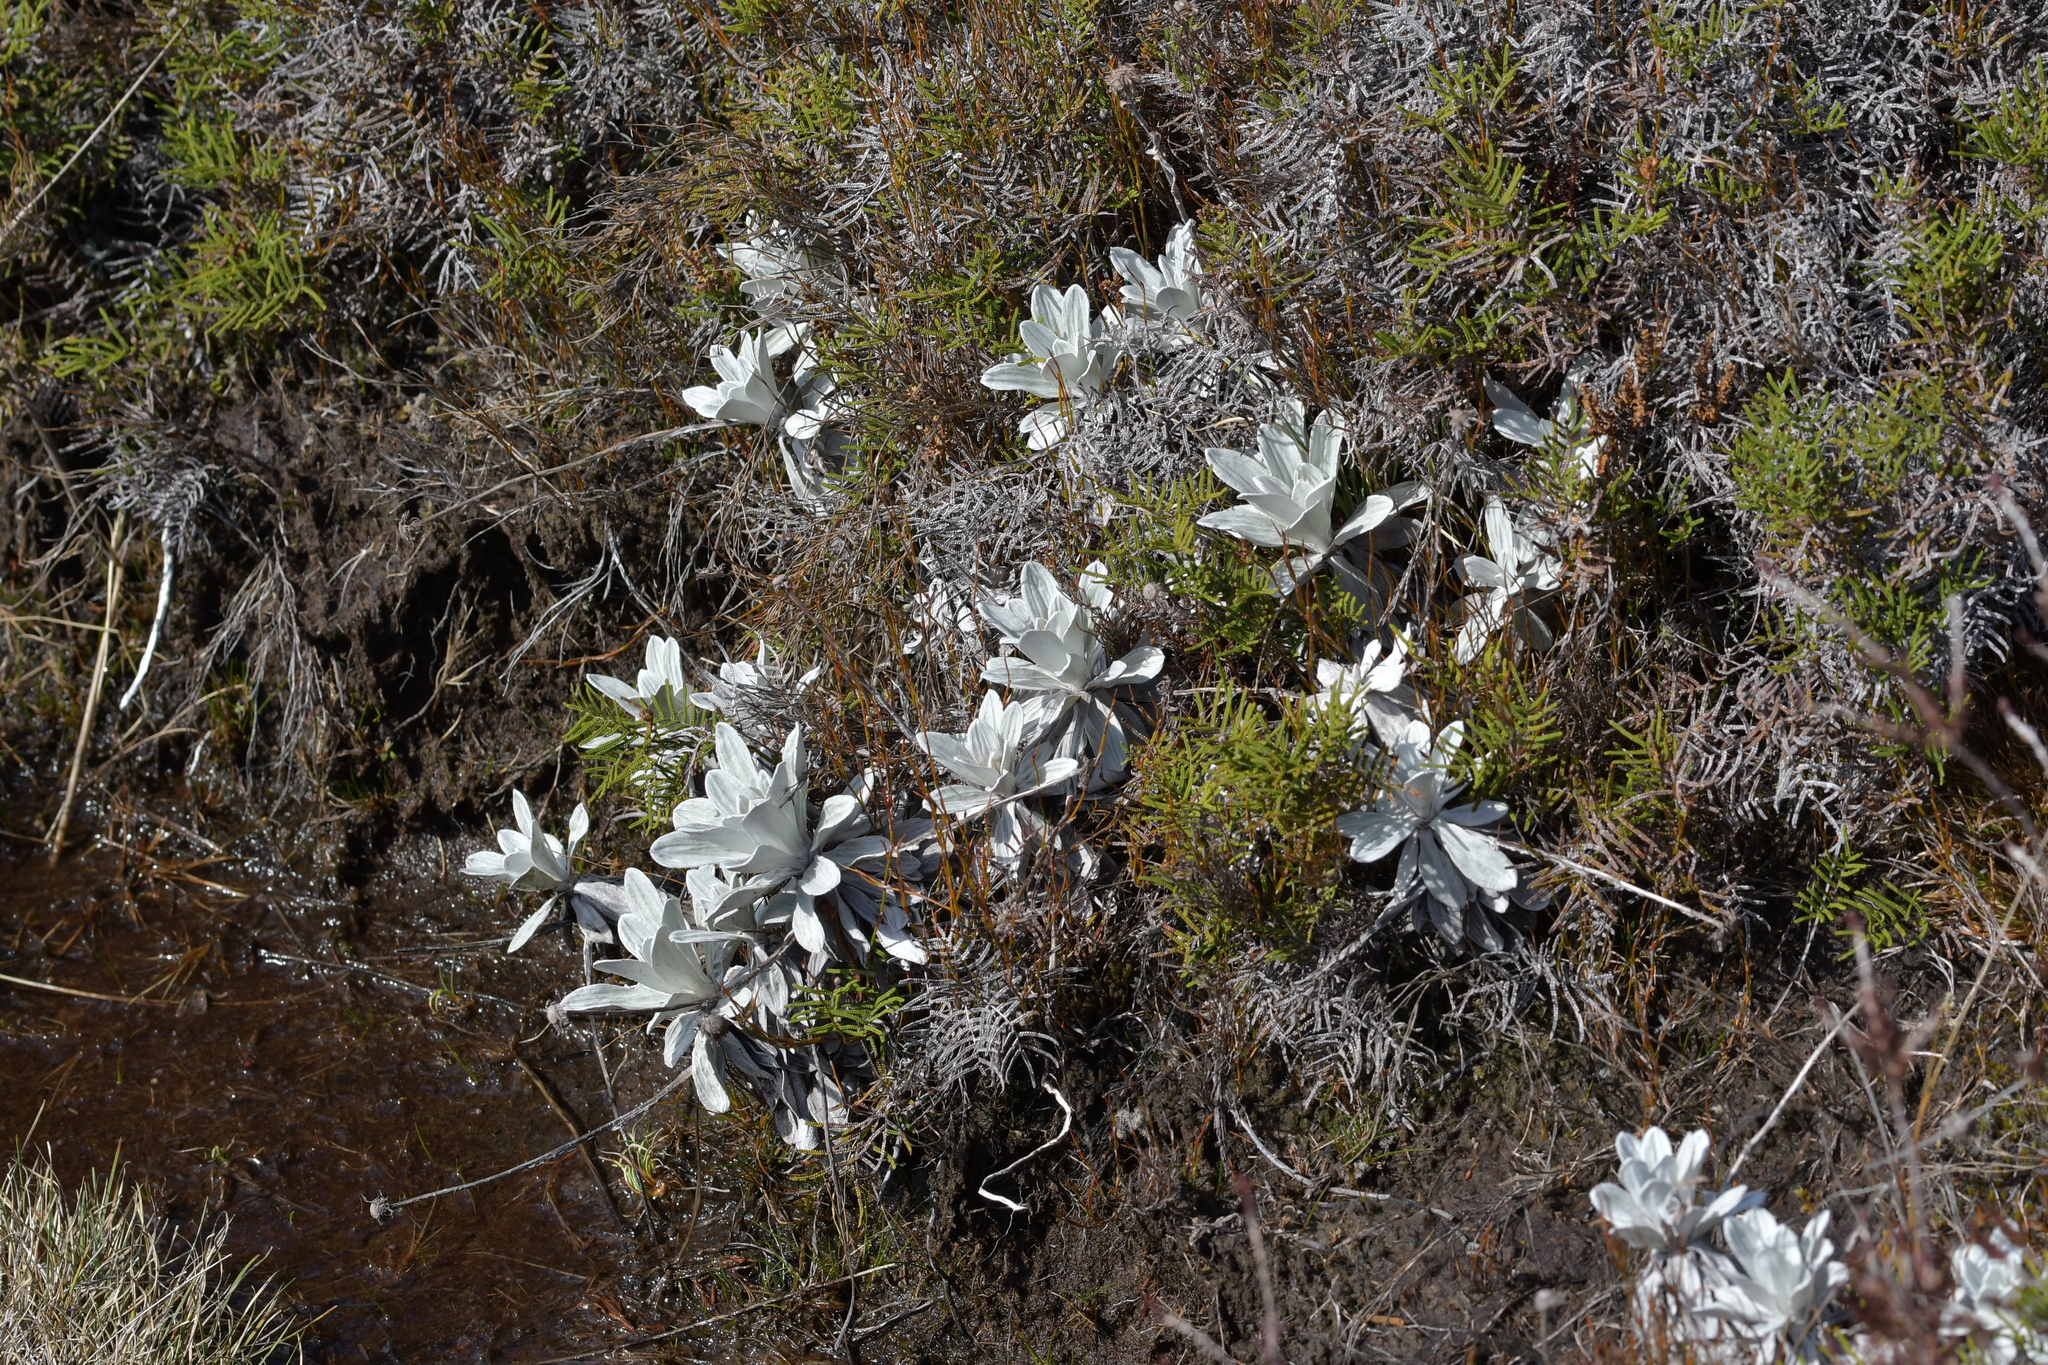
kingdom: Plantae
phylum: Tracheophyta
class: Magnoliopsida
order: Asterales
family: Asteraceae
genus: Celmisia
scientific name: Celmisia incana
